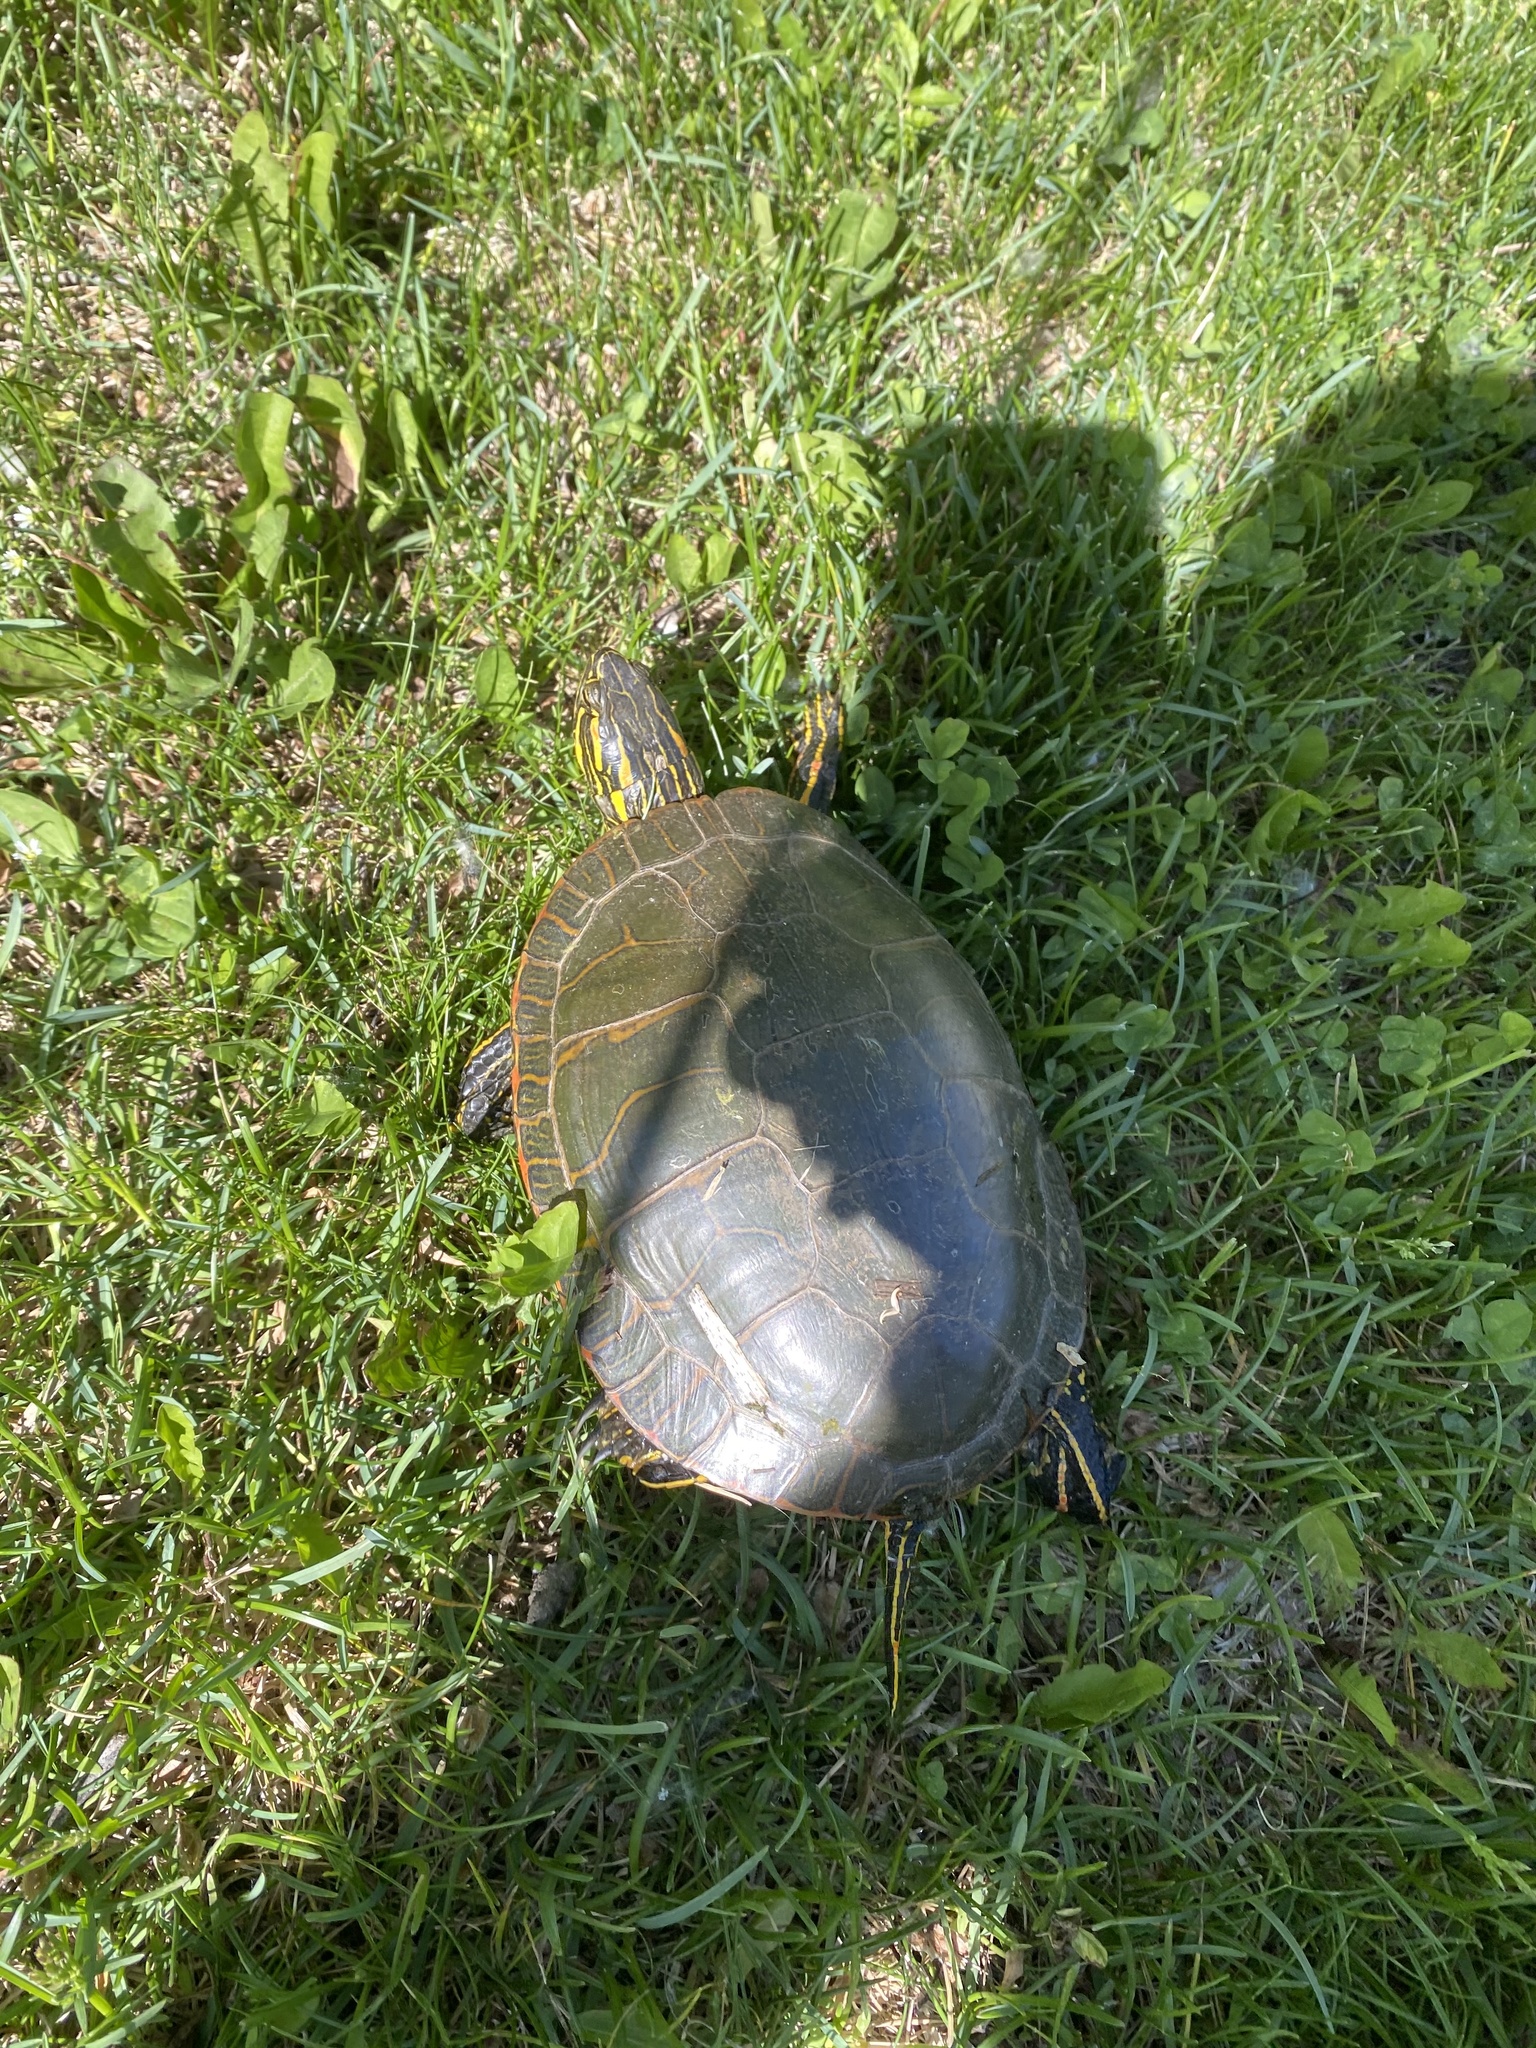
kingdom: Animalia
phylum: Chordata
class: Testudines
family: Emydidae
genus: Chrysemys
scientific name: Chrysemys picta
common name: Painted turtle
